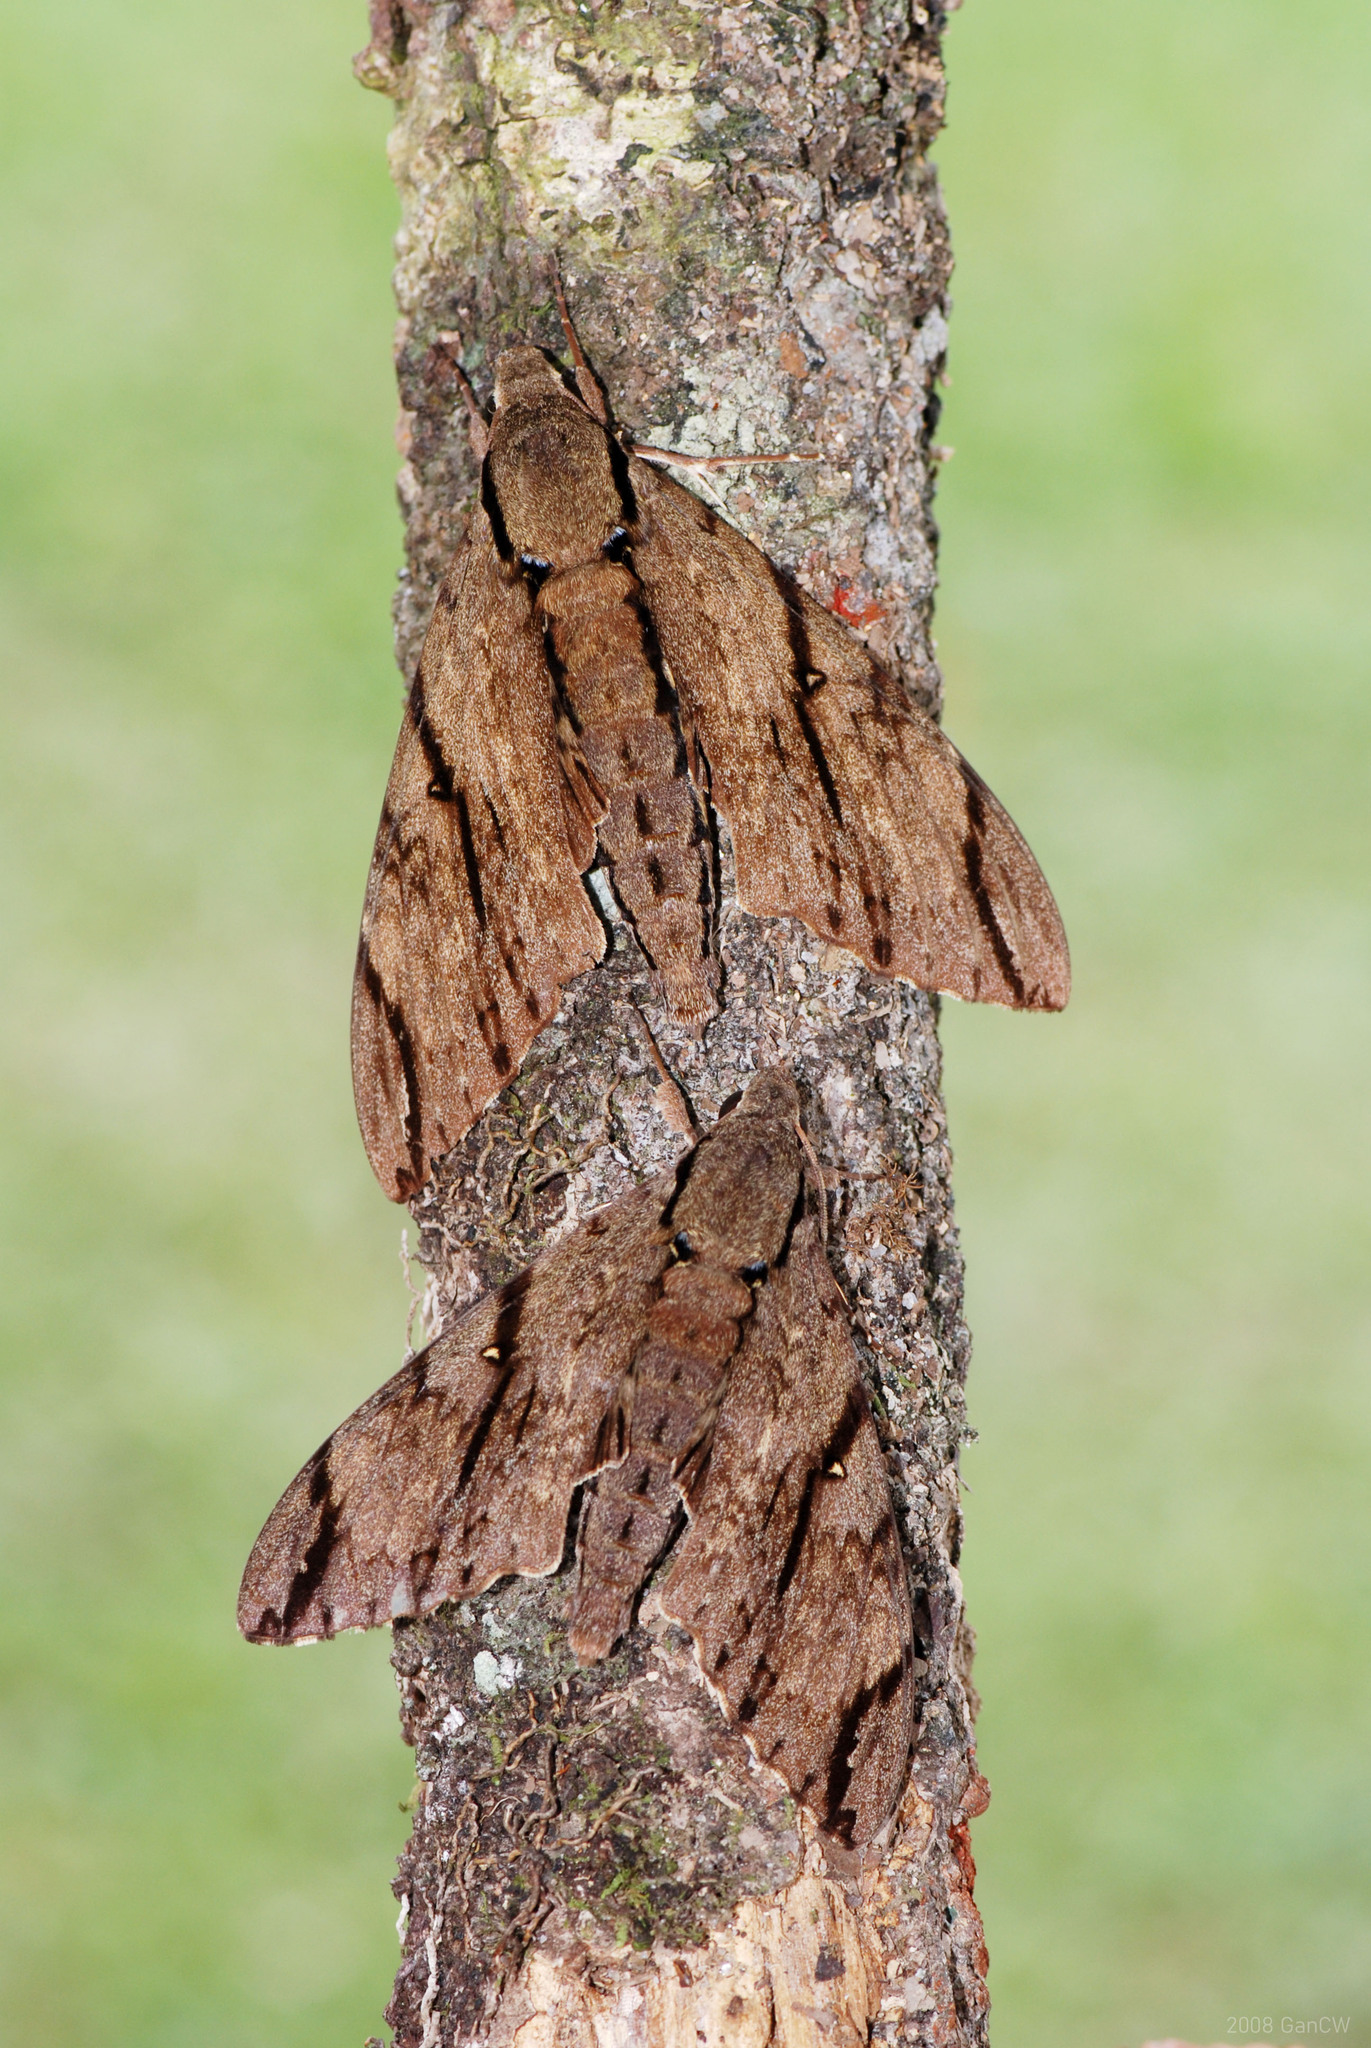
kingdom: Animalia
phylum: Arthropoda
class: Insecta
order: Lepidoptera
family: Sphingidae
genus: Cerberonoton
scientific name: Cerberonoton rubescens
